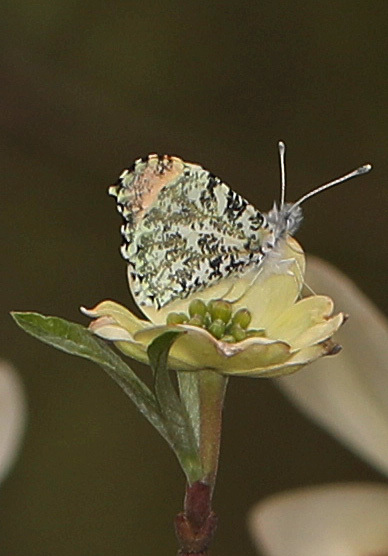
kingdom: Animalia
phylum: Arthropoda
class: Insecta
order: Lepidoptera
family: Pieridae
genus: Anthocharis
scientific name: Anthocharis midea
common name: Falcate orangetip
